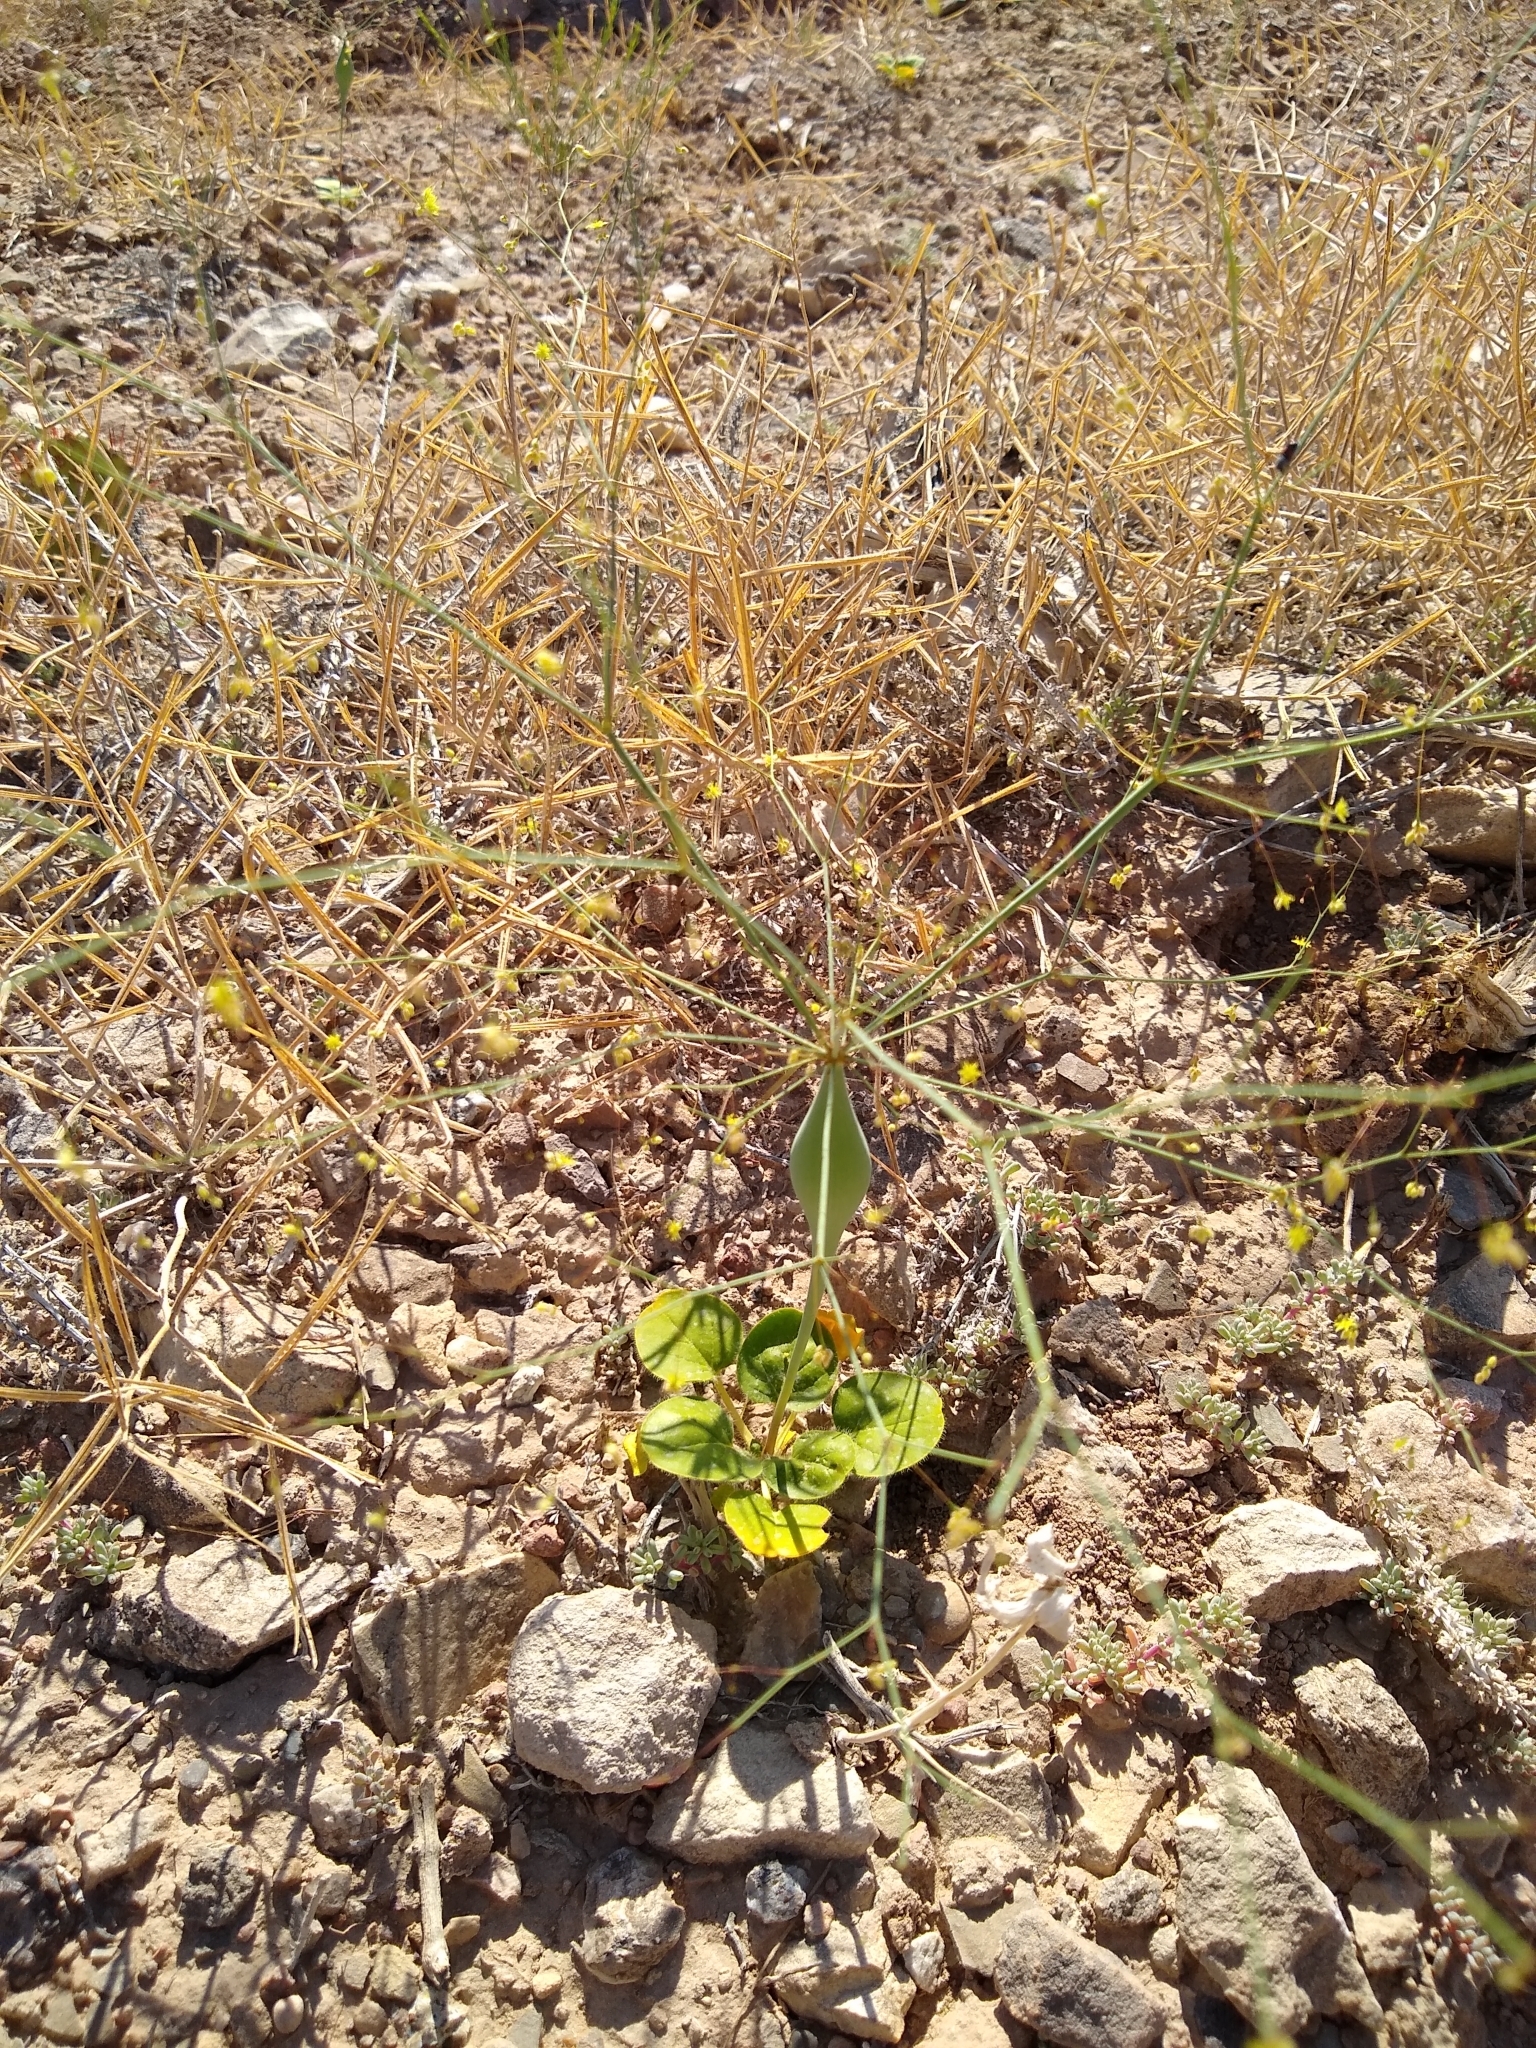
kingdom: Plantae
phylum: Tracheophyta
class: Magnoliopsida
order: Caryophyllales
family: Polygonaceae
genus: Eriogonum
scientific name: Eriogonum fusiforme
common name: Grand valley desert trumpet
